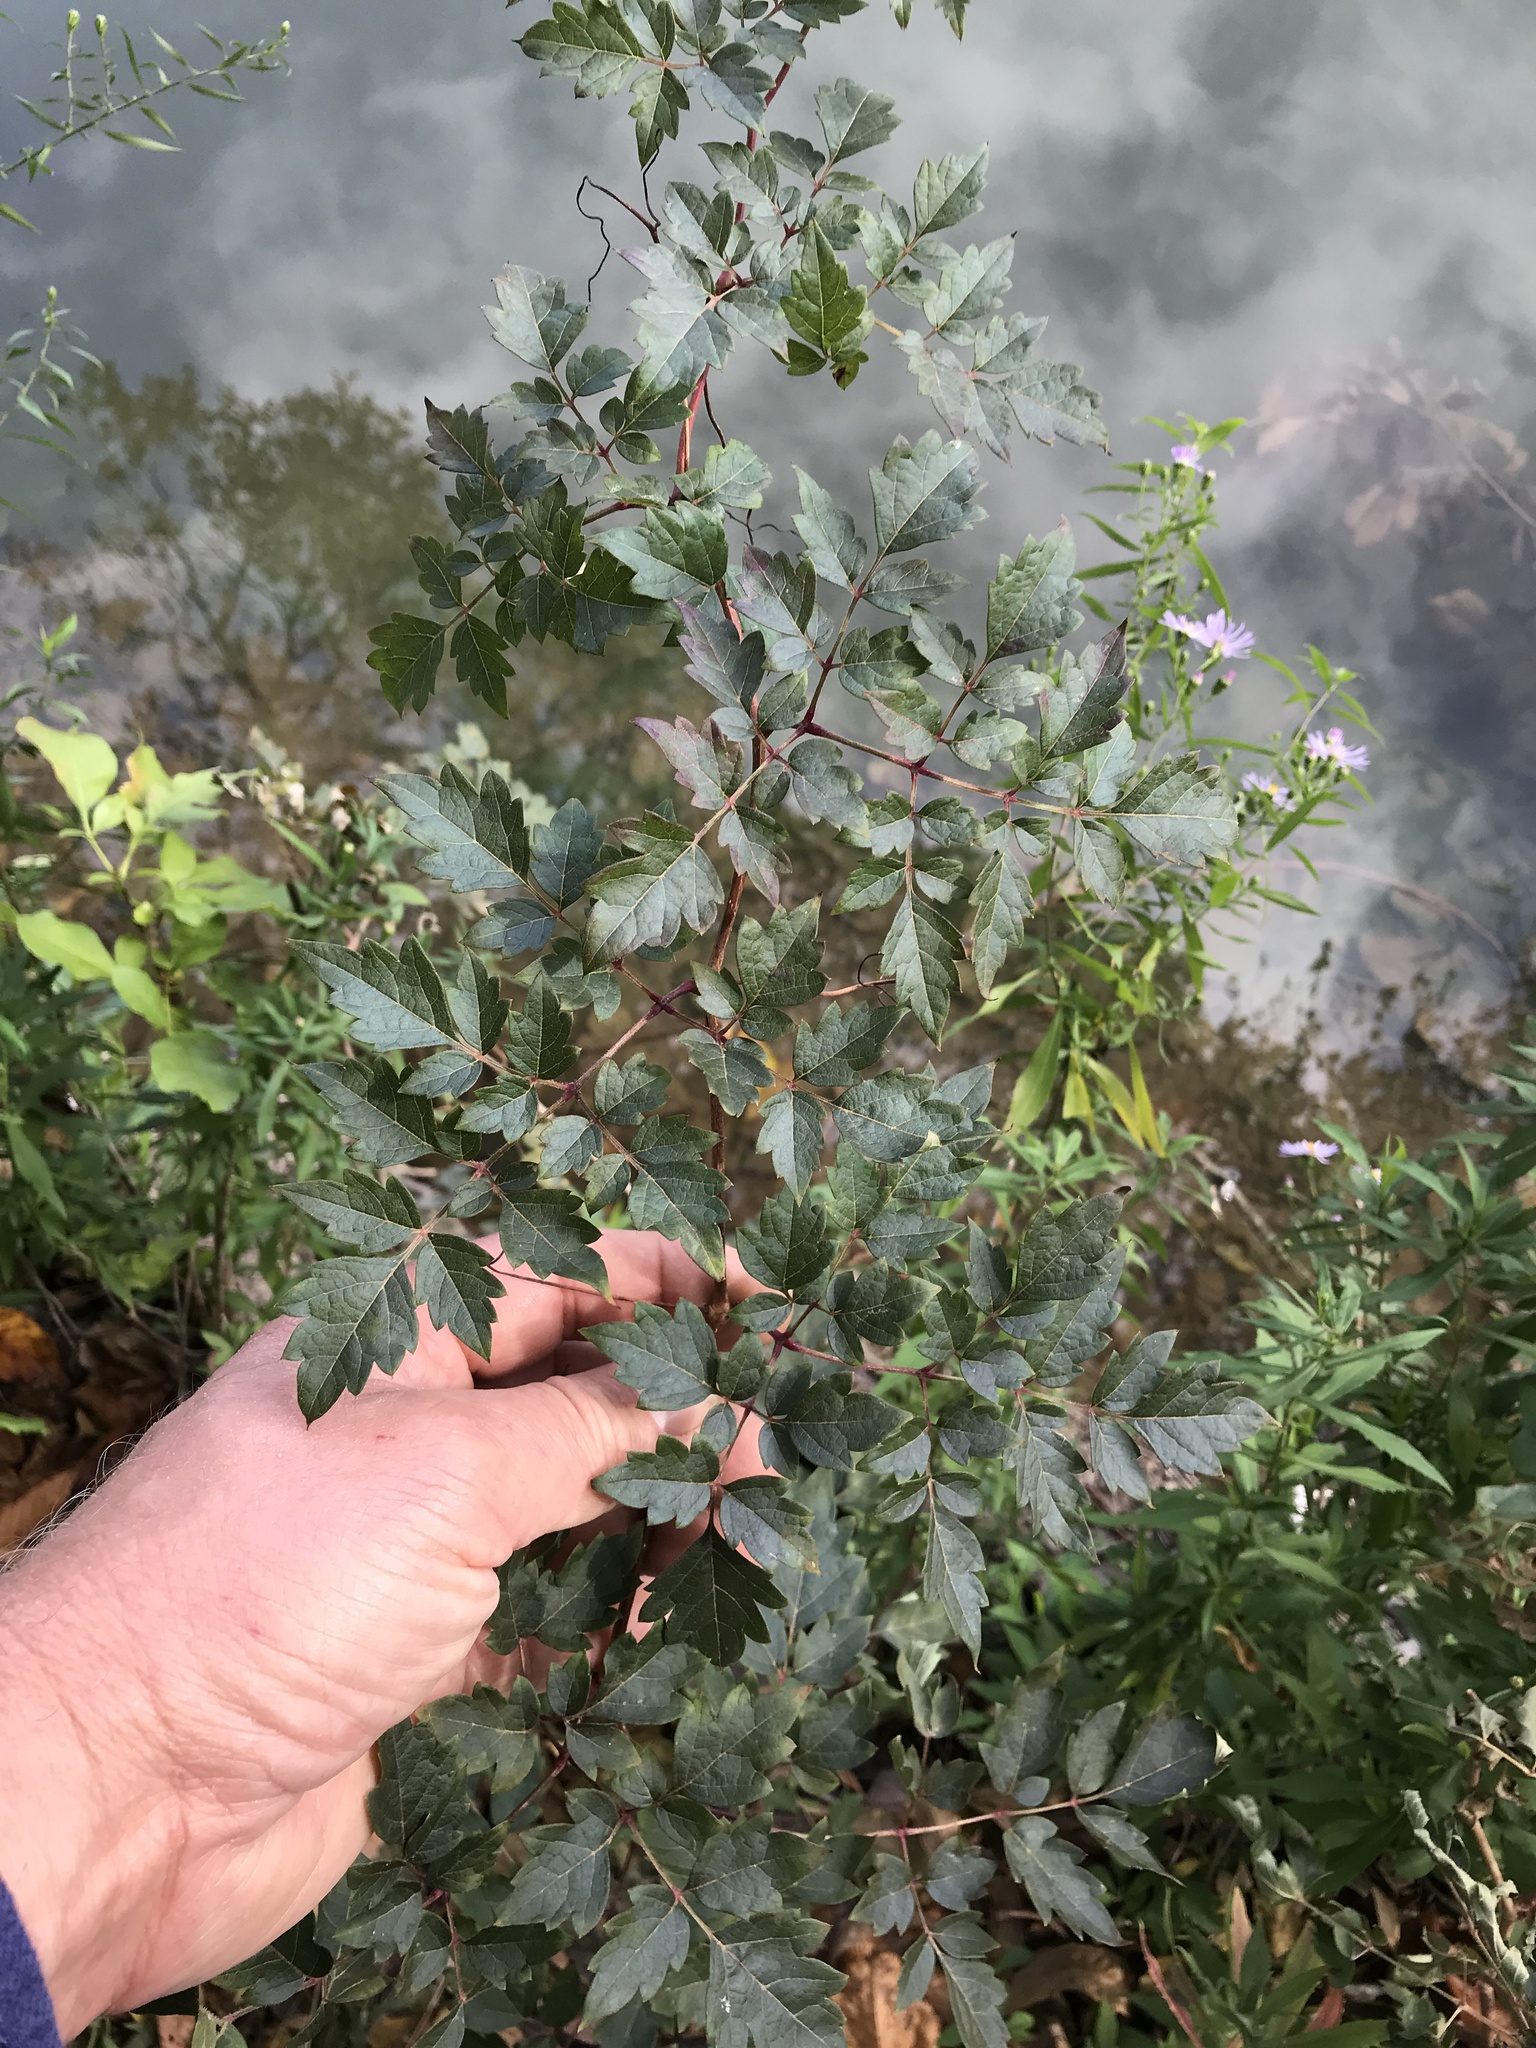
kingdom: Plantae
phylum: Tracheophyta
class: Magnoliopsida
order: Vitales
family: Vitaceae
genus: Nekemias
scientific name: Nekemias arborea
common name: Peppervine
